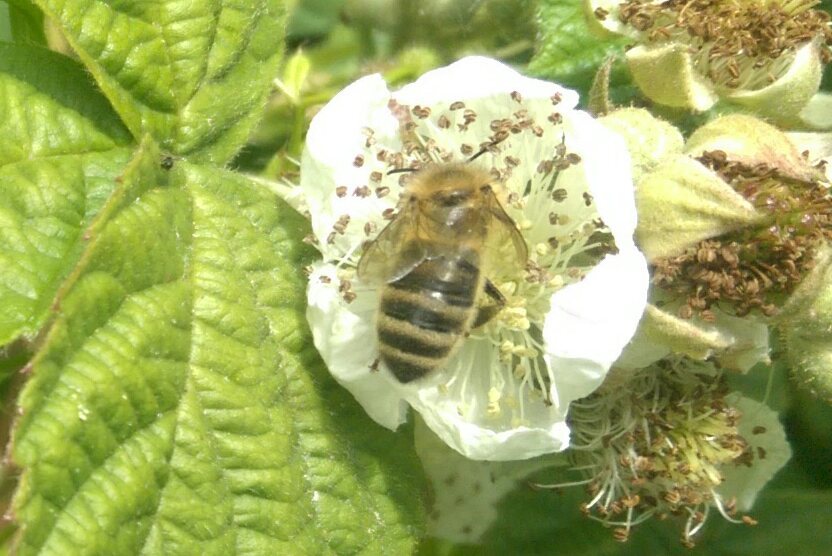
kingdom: Animalia
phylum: Arthropoda
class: Insecta
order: Hymenoptera
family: Apidae
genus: Apis
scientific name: Apis mellifera
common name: Honey bee
